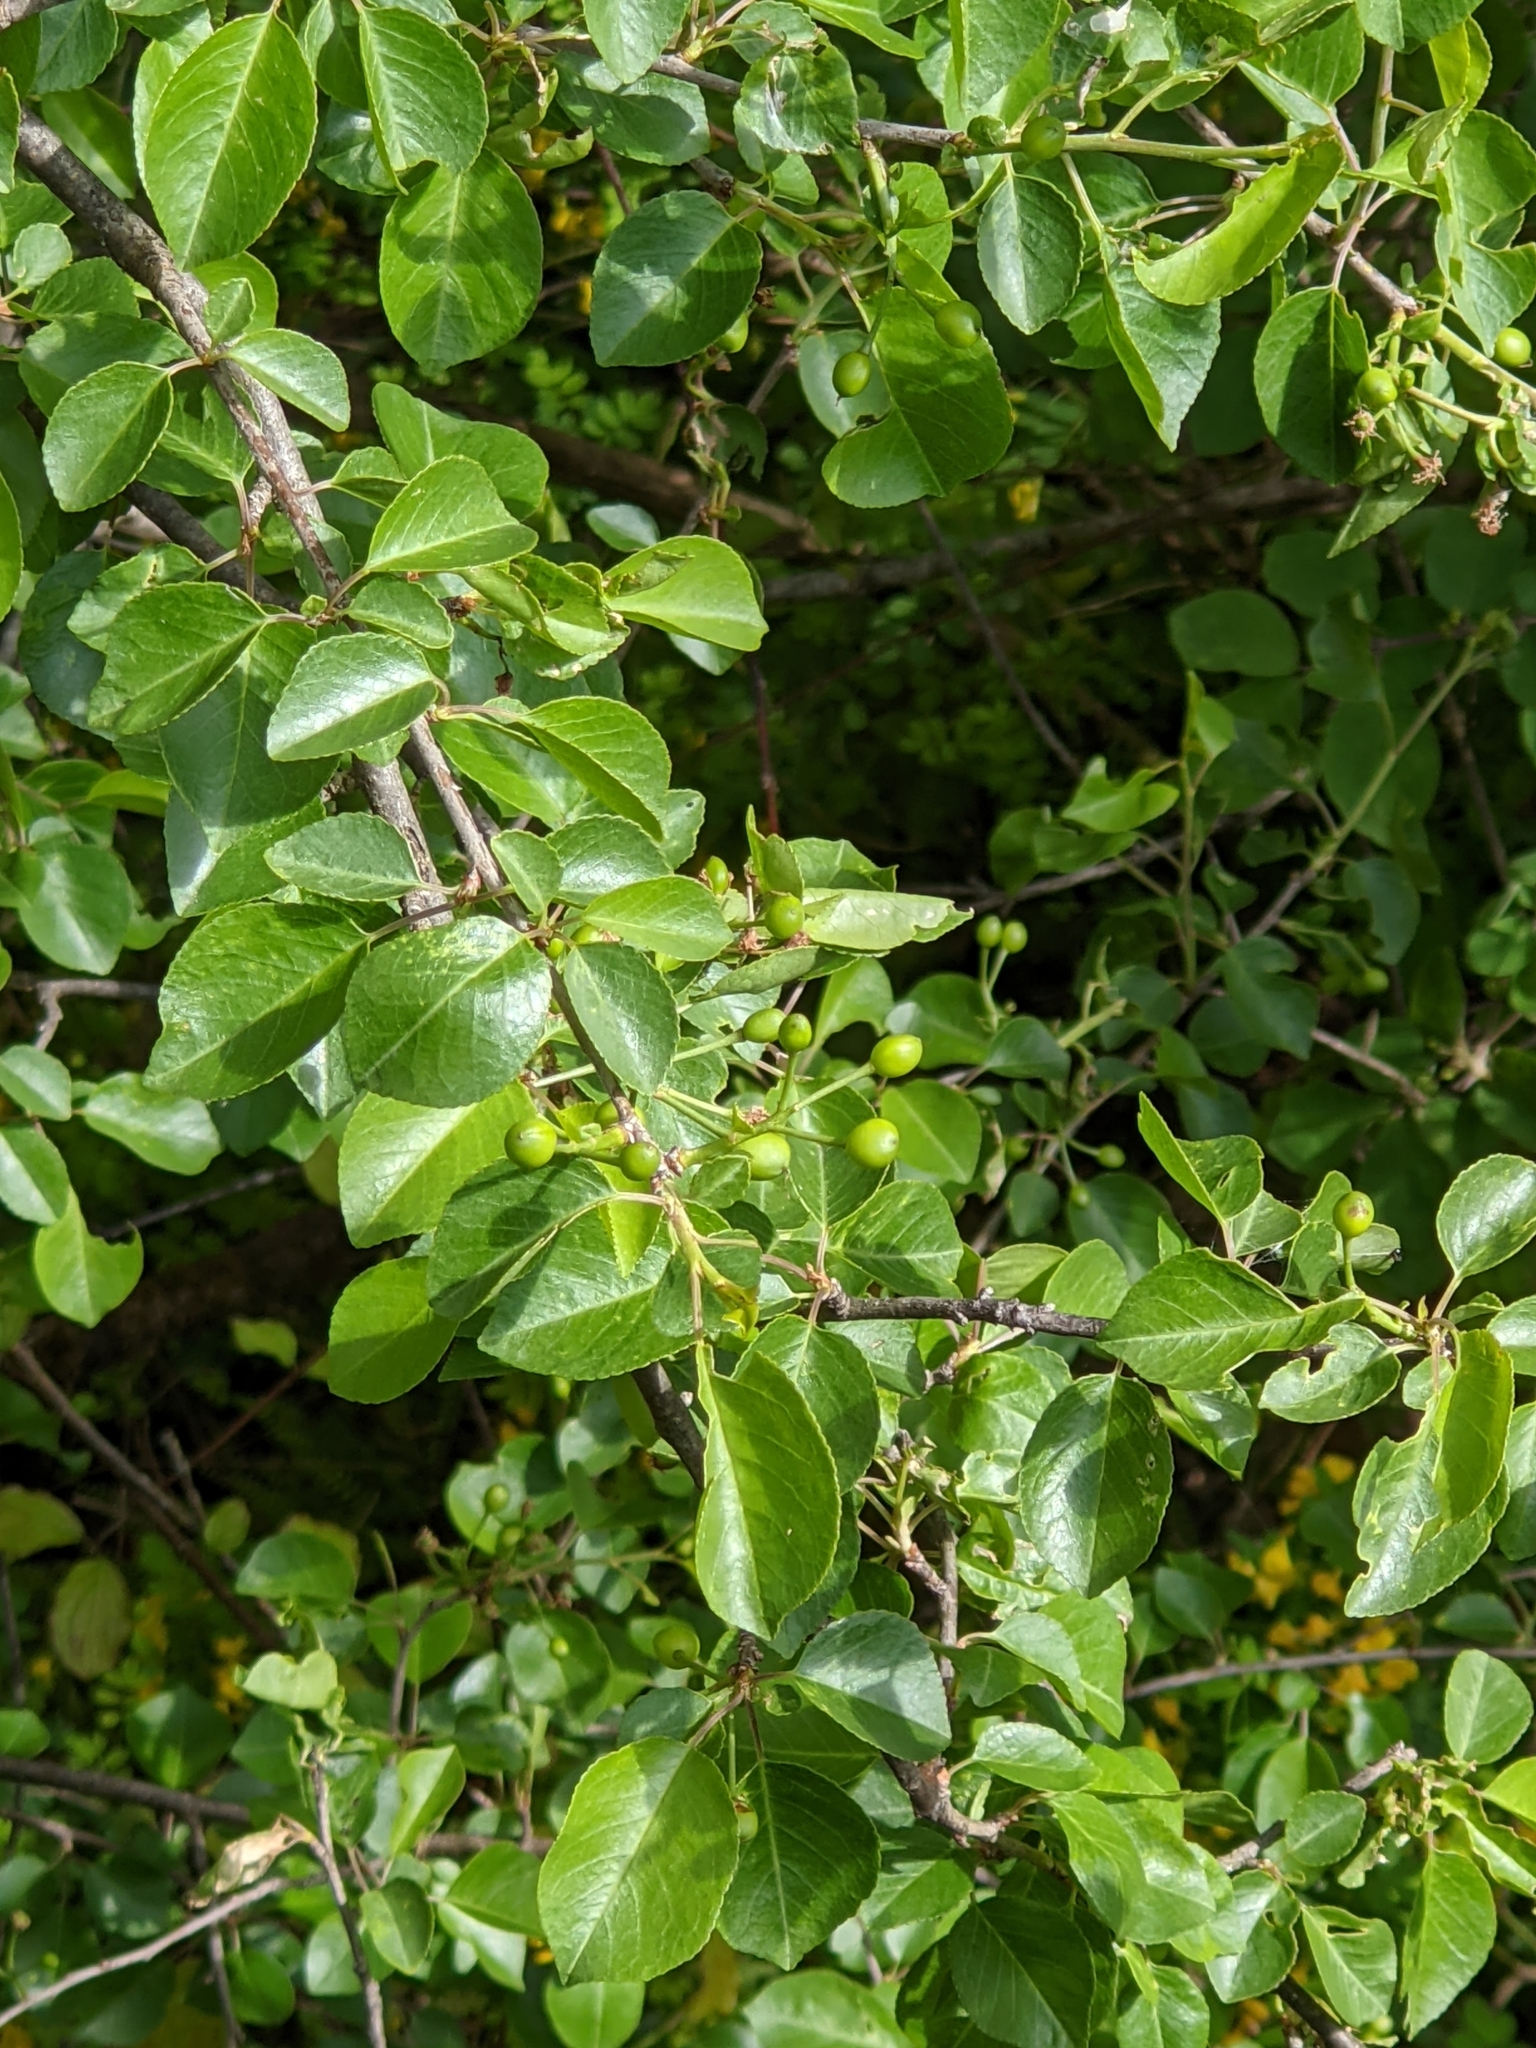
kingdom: Plantae
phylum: Tracheophyta
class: Magnoliopsida
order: Rosales
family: Rosaceae
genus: Prunus
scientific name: Prunus mahaleb
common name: Mahaleb cherry
